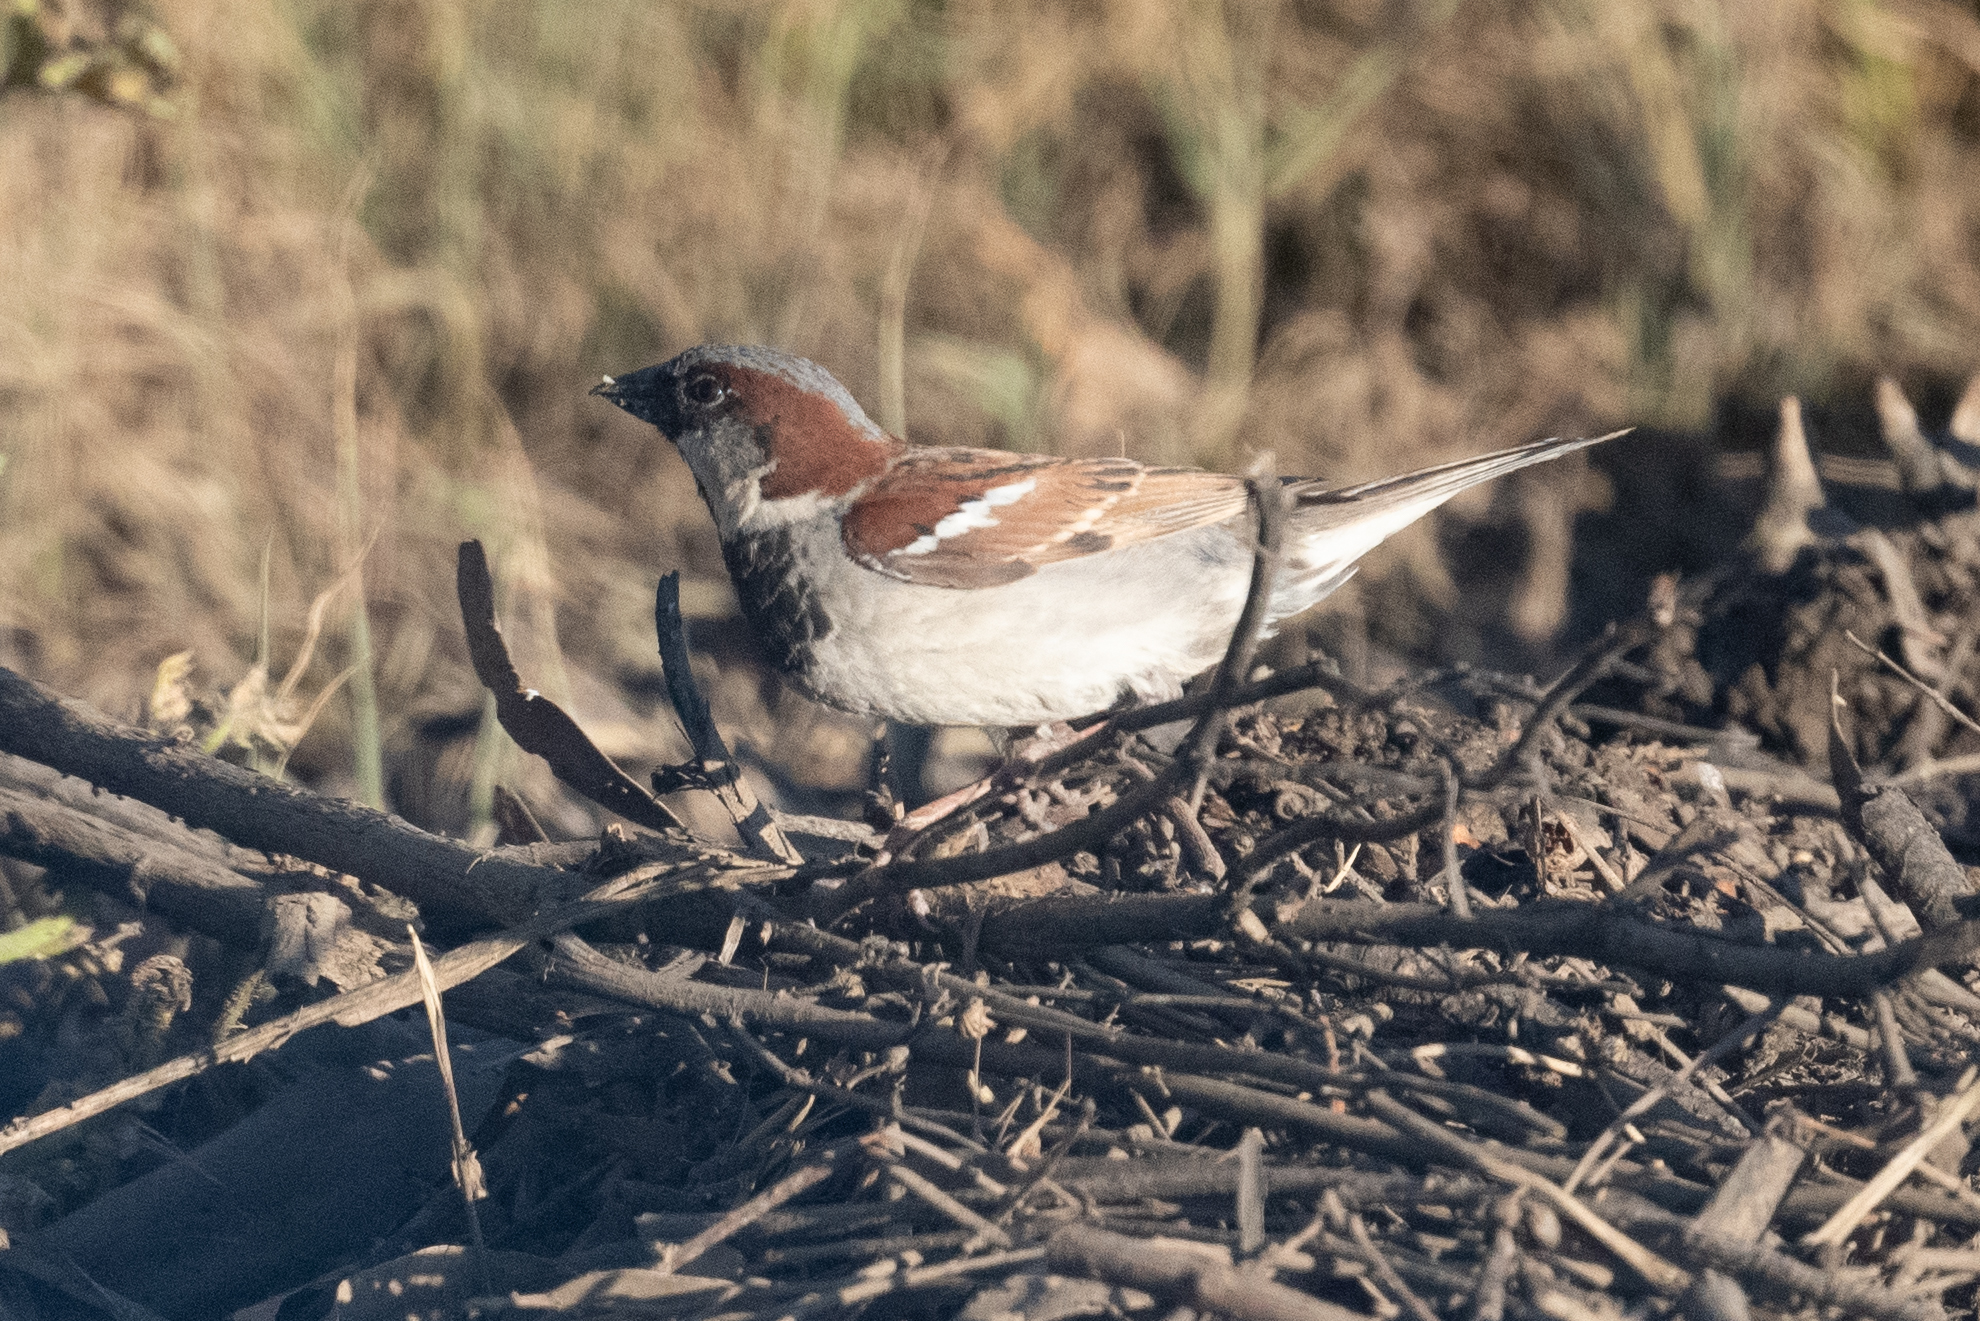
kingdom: Animalia
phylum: Chordata
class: Aves
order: Passeriformes
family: Passeridae
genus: Passer
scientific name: Passer domesticus
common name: House sparrow
